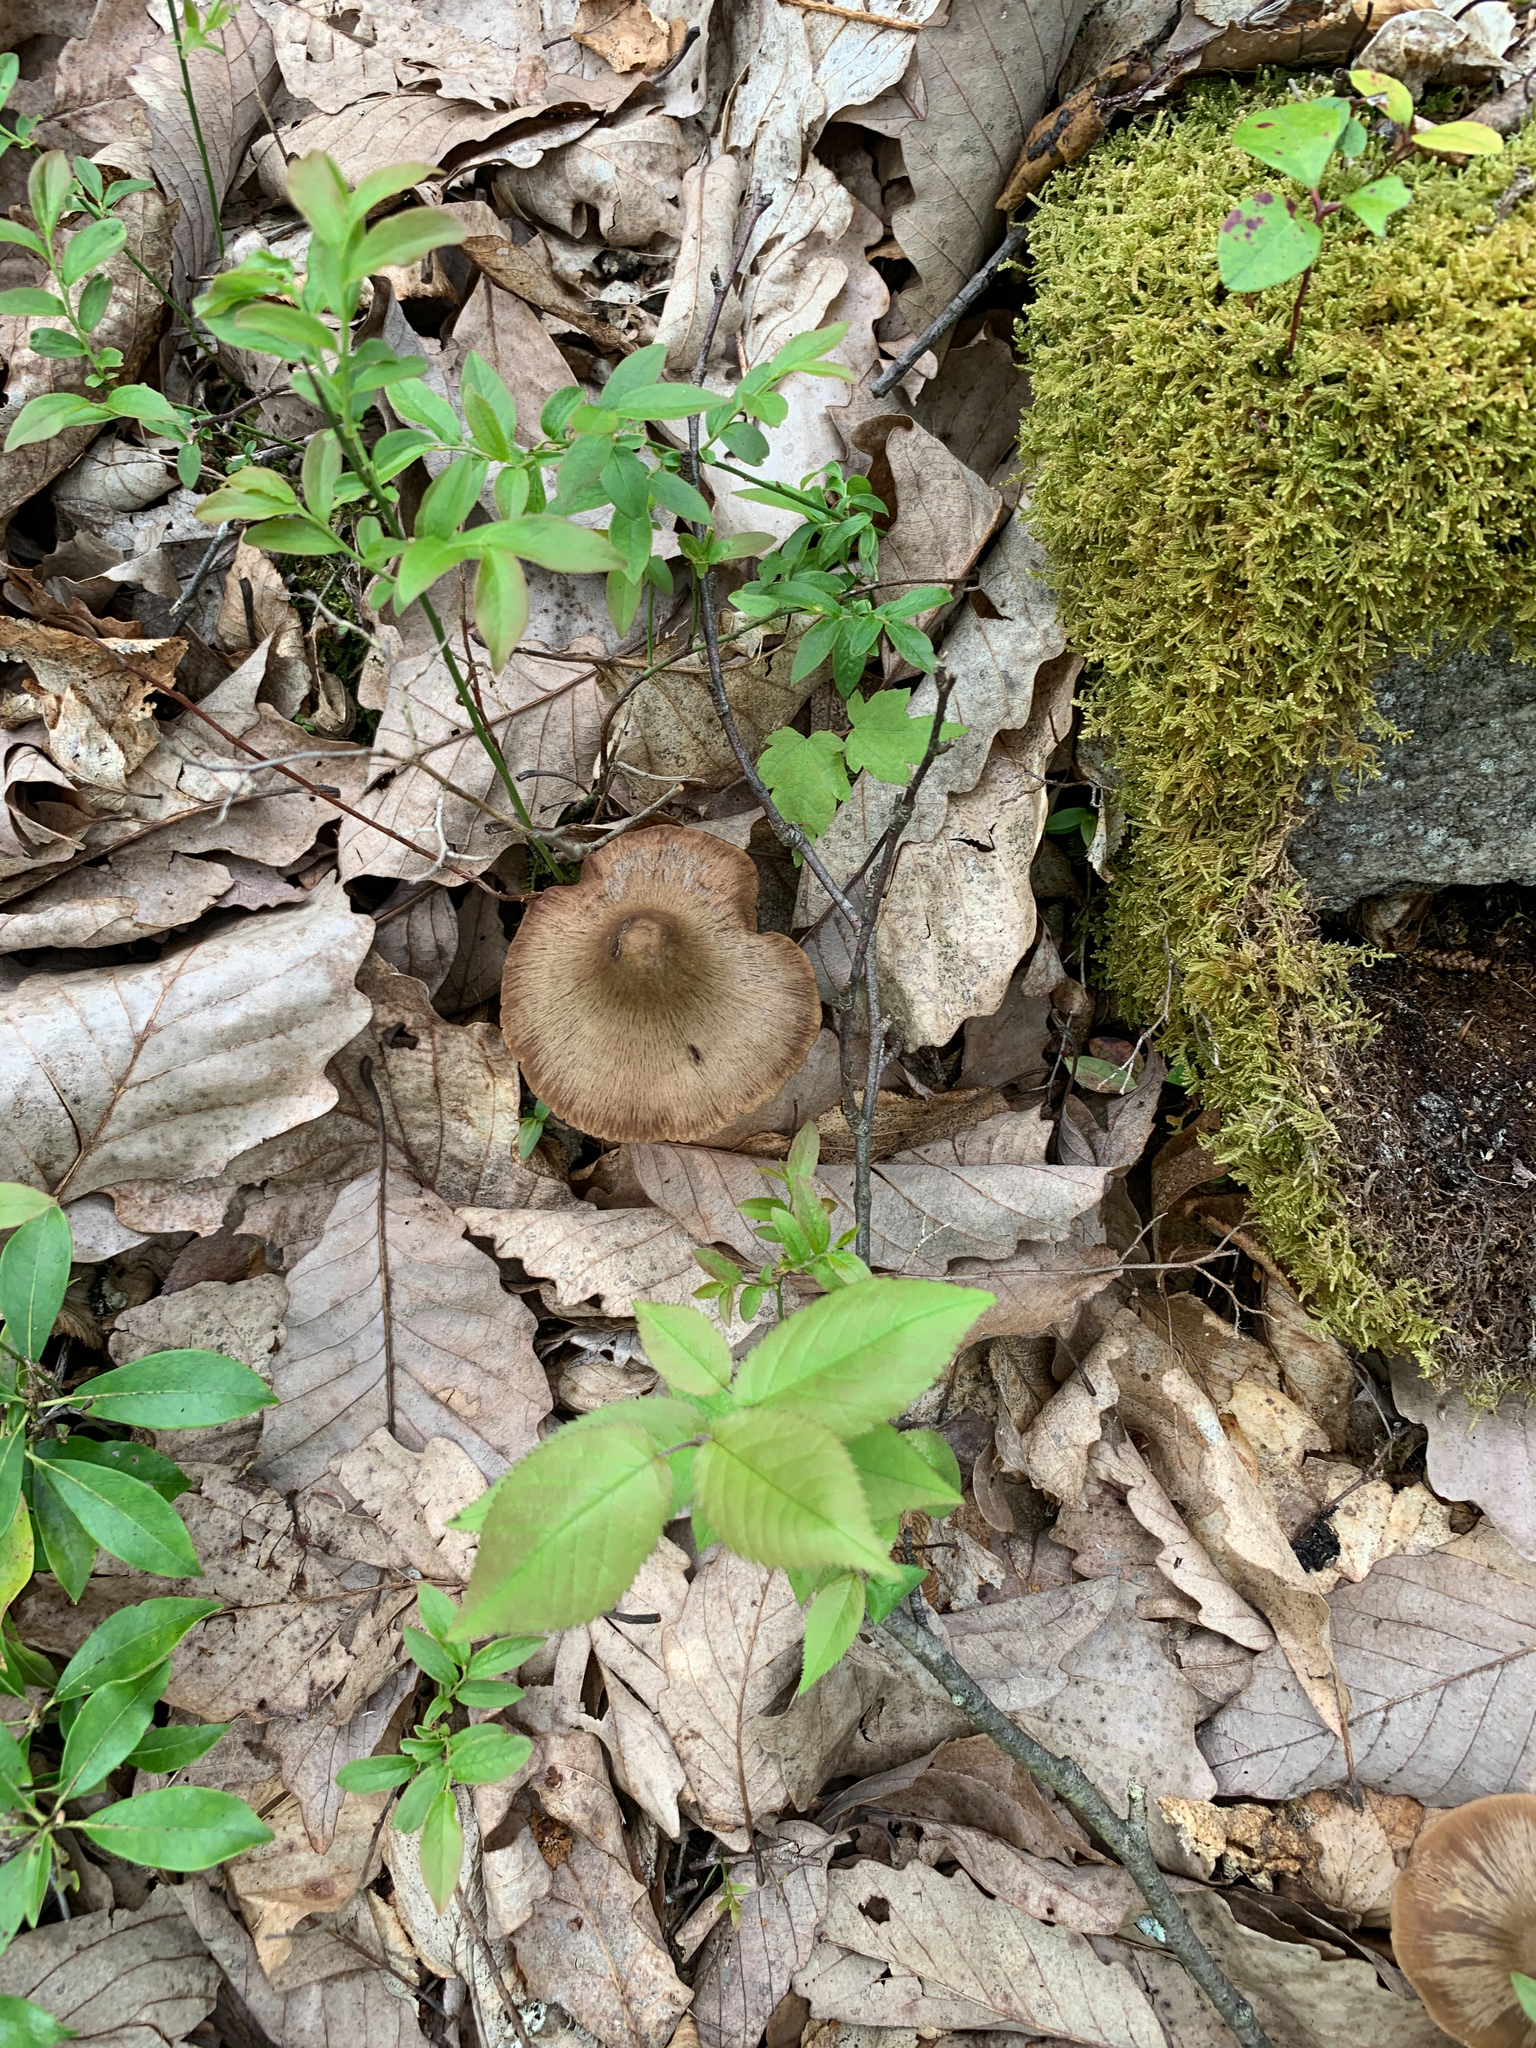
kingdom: Fungi
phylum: Basidiomycota
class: Agaricomycetes
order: Agaricales
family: Entolomataceae
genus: Entoloma
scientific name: Entoloma vernum
